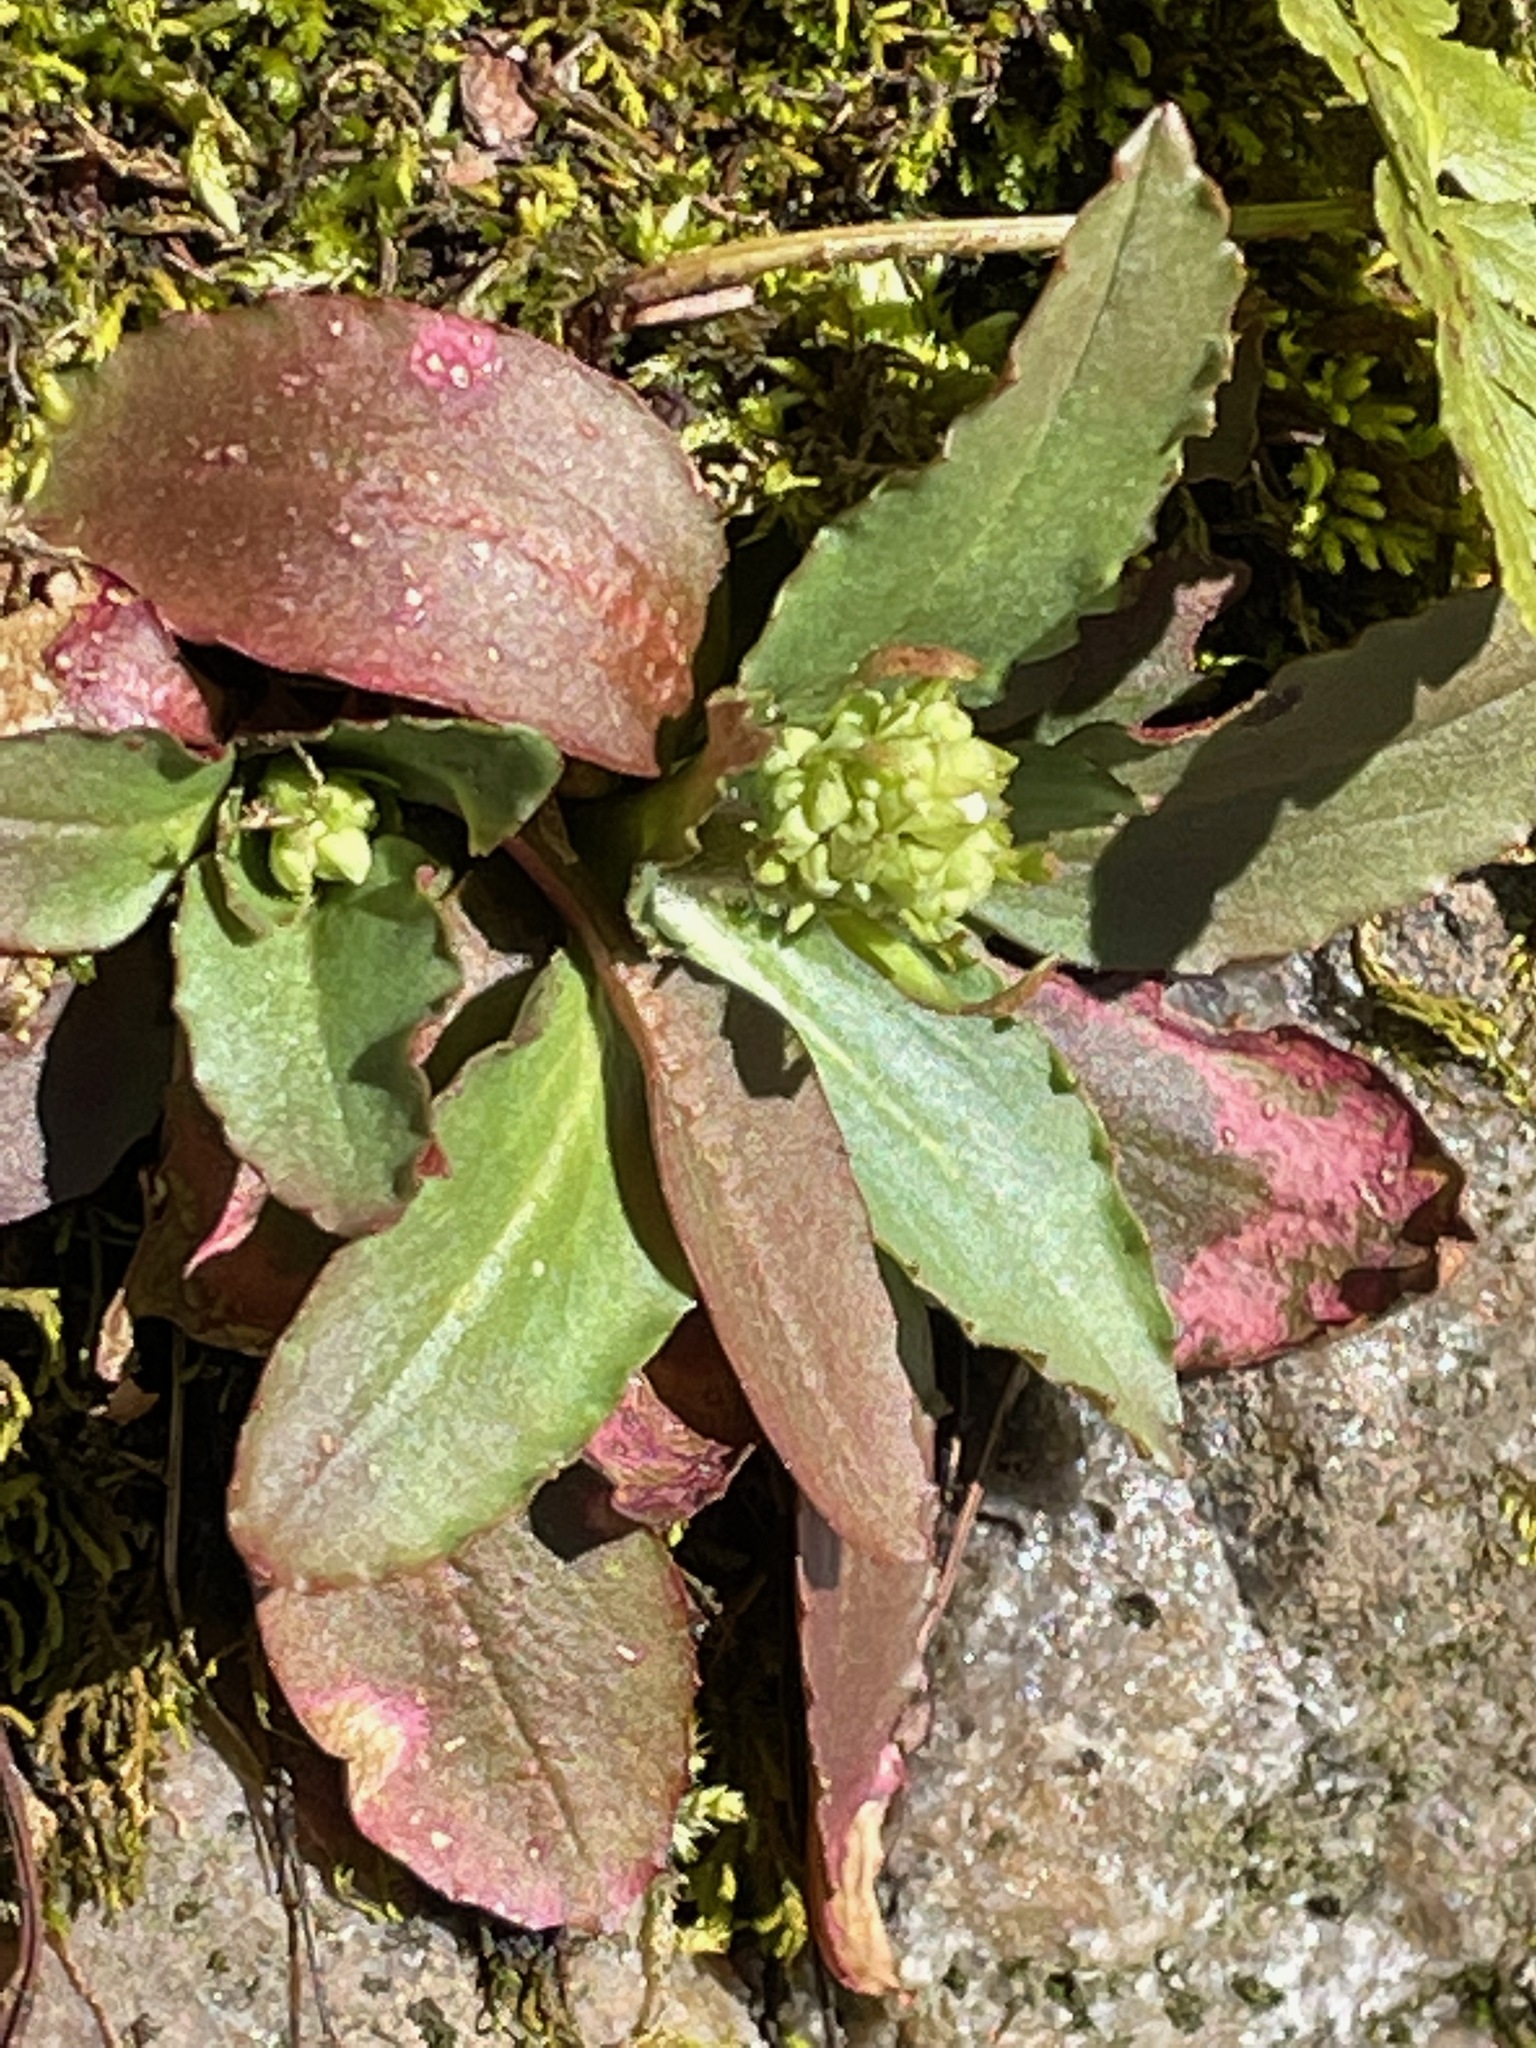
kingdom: Plantae
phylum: Tracheophyta
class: Magnoliopsida
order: Saxifragales
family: Saxifragaceae
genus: Micranthes
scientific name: Micranthes virginiensis
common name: Early saxifrage
